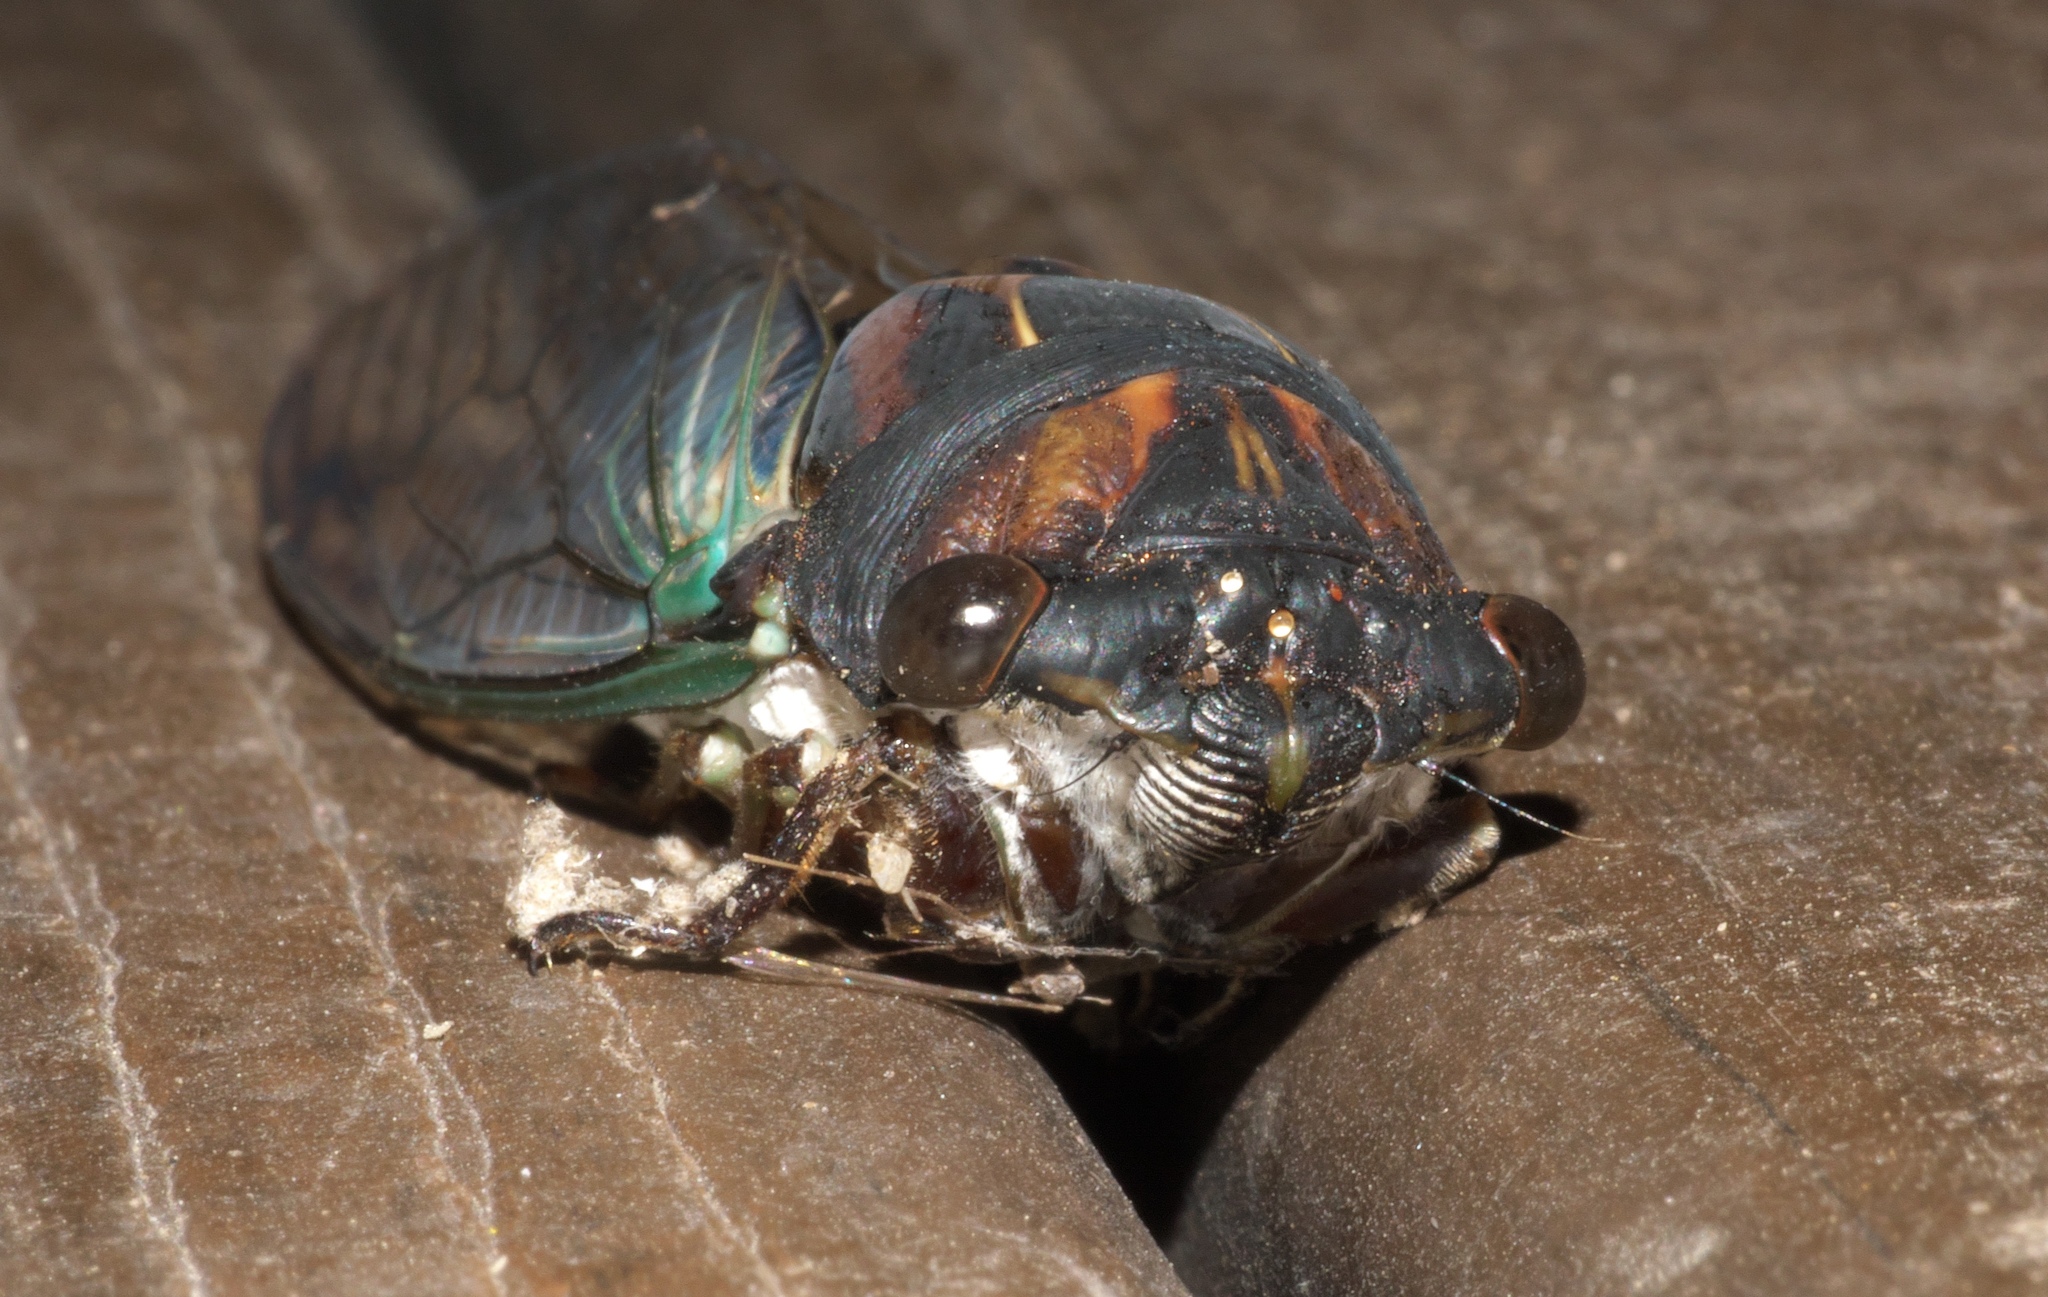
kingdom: Animalia
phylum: Arthropoda
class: Insecta
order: Hemiptera
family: Cicadidae
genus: Neotibicen
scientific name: Neotibicen lyricen
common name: Lyric cicada
